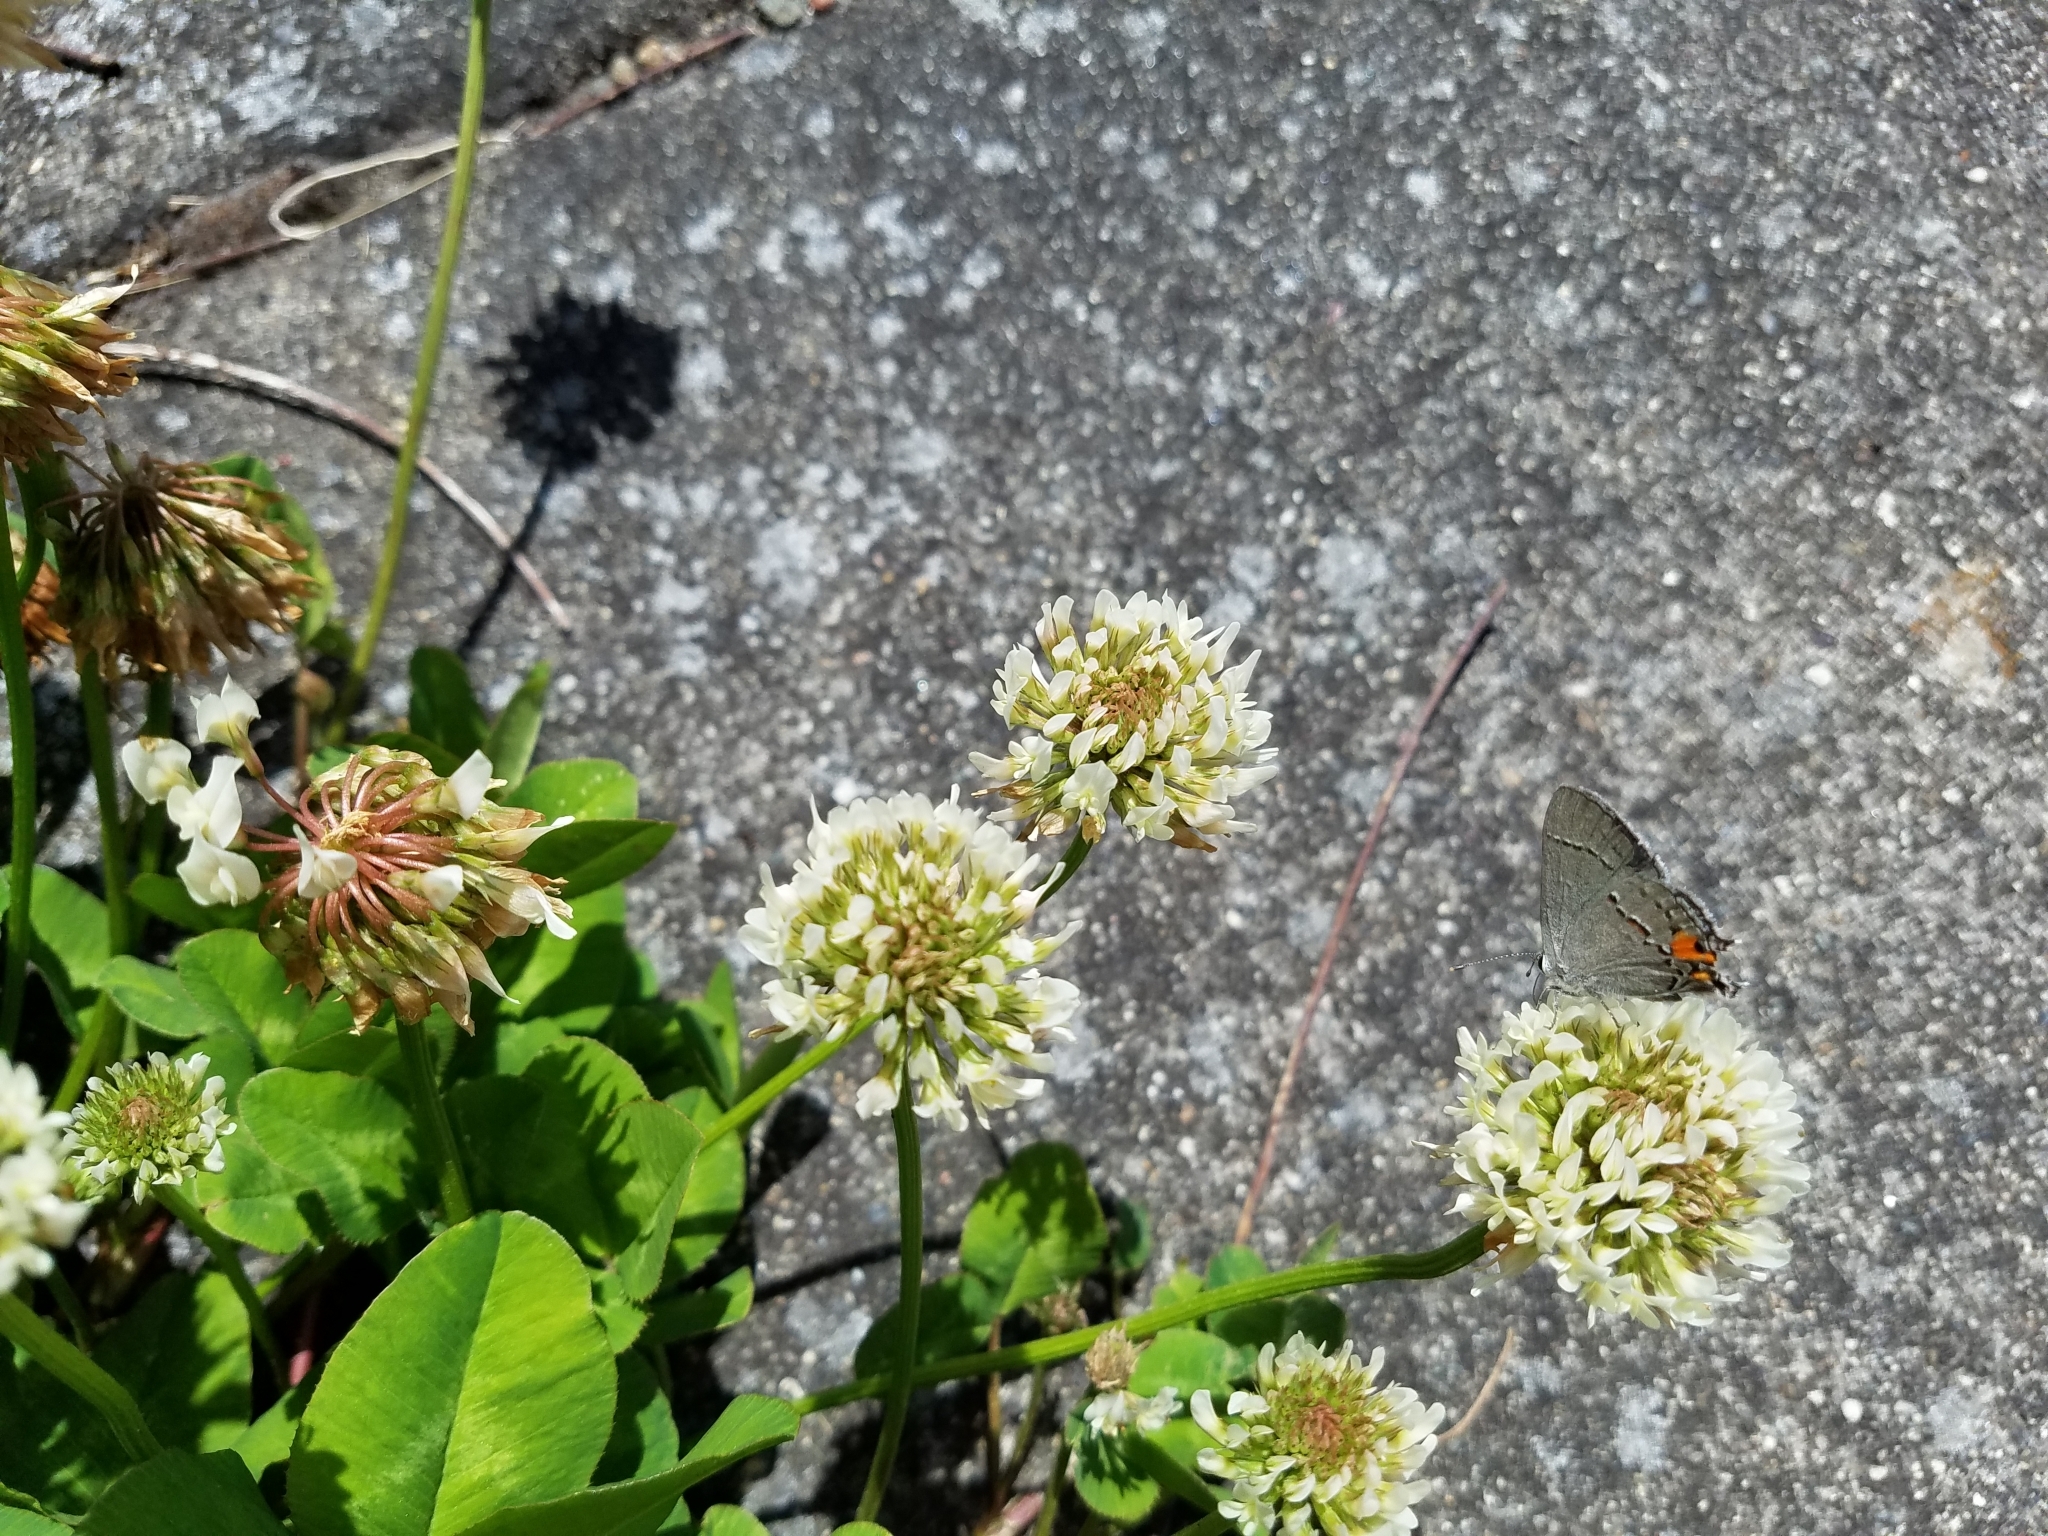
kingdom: Animalia
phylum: Arthropoda
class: Insecta
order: Lepidoptera
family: Lycaenidae
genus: Strymon
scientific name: Strymon melinus
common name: Gray hairstreak
